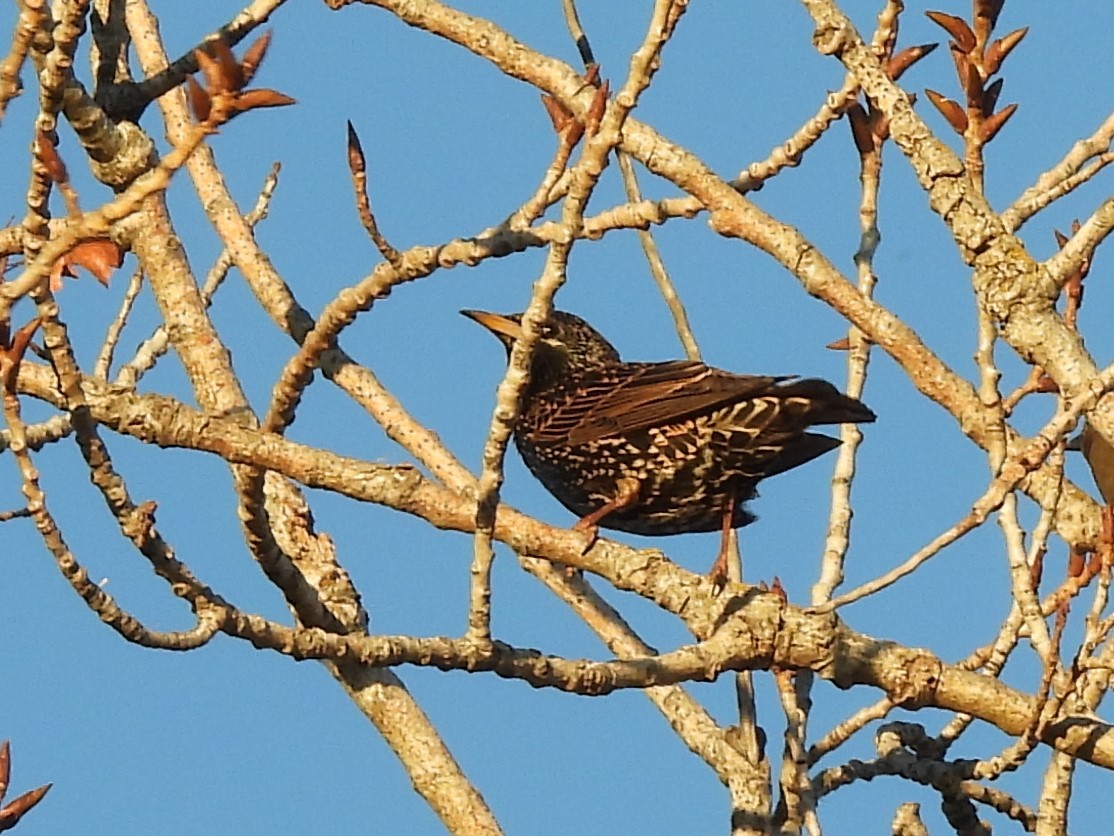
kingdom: Animalia
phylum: Chordata
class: Aves
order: Passeriformes
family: Sturnidae
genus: Sturnus
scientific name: Sturnus vulgaris
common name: Common starling
